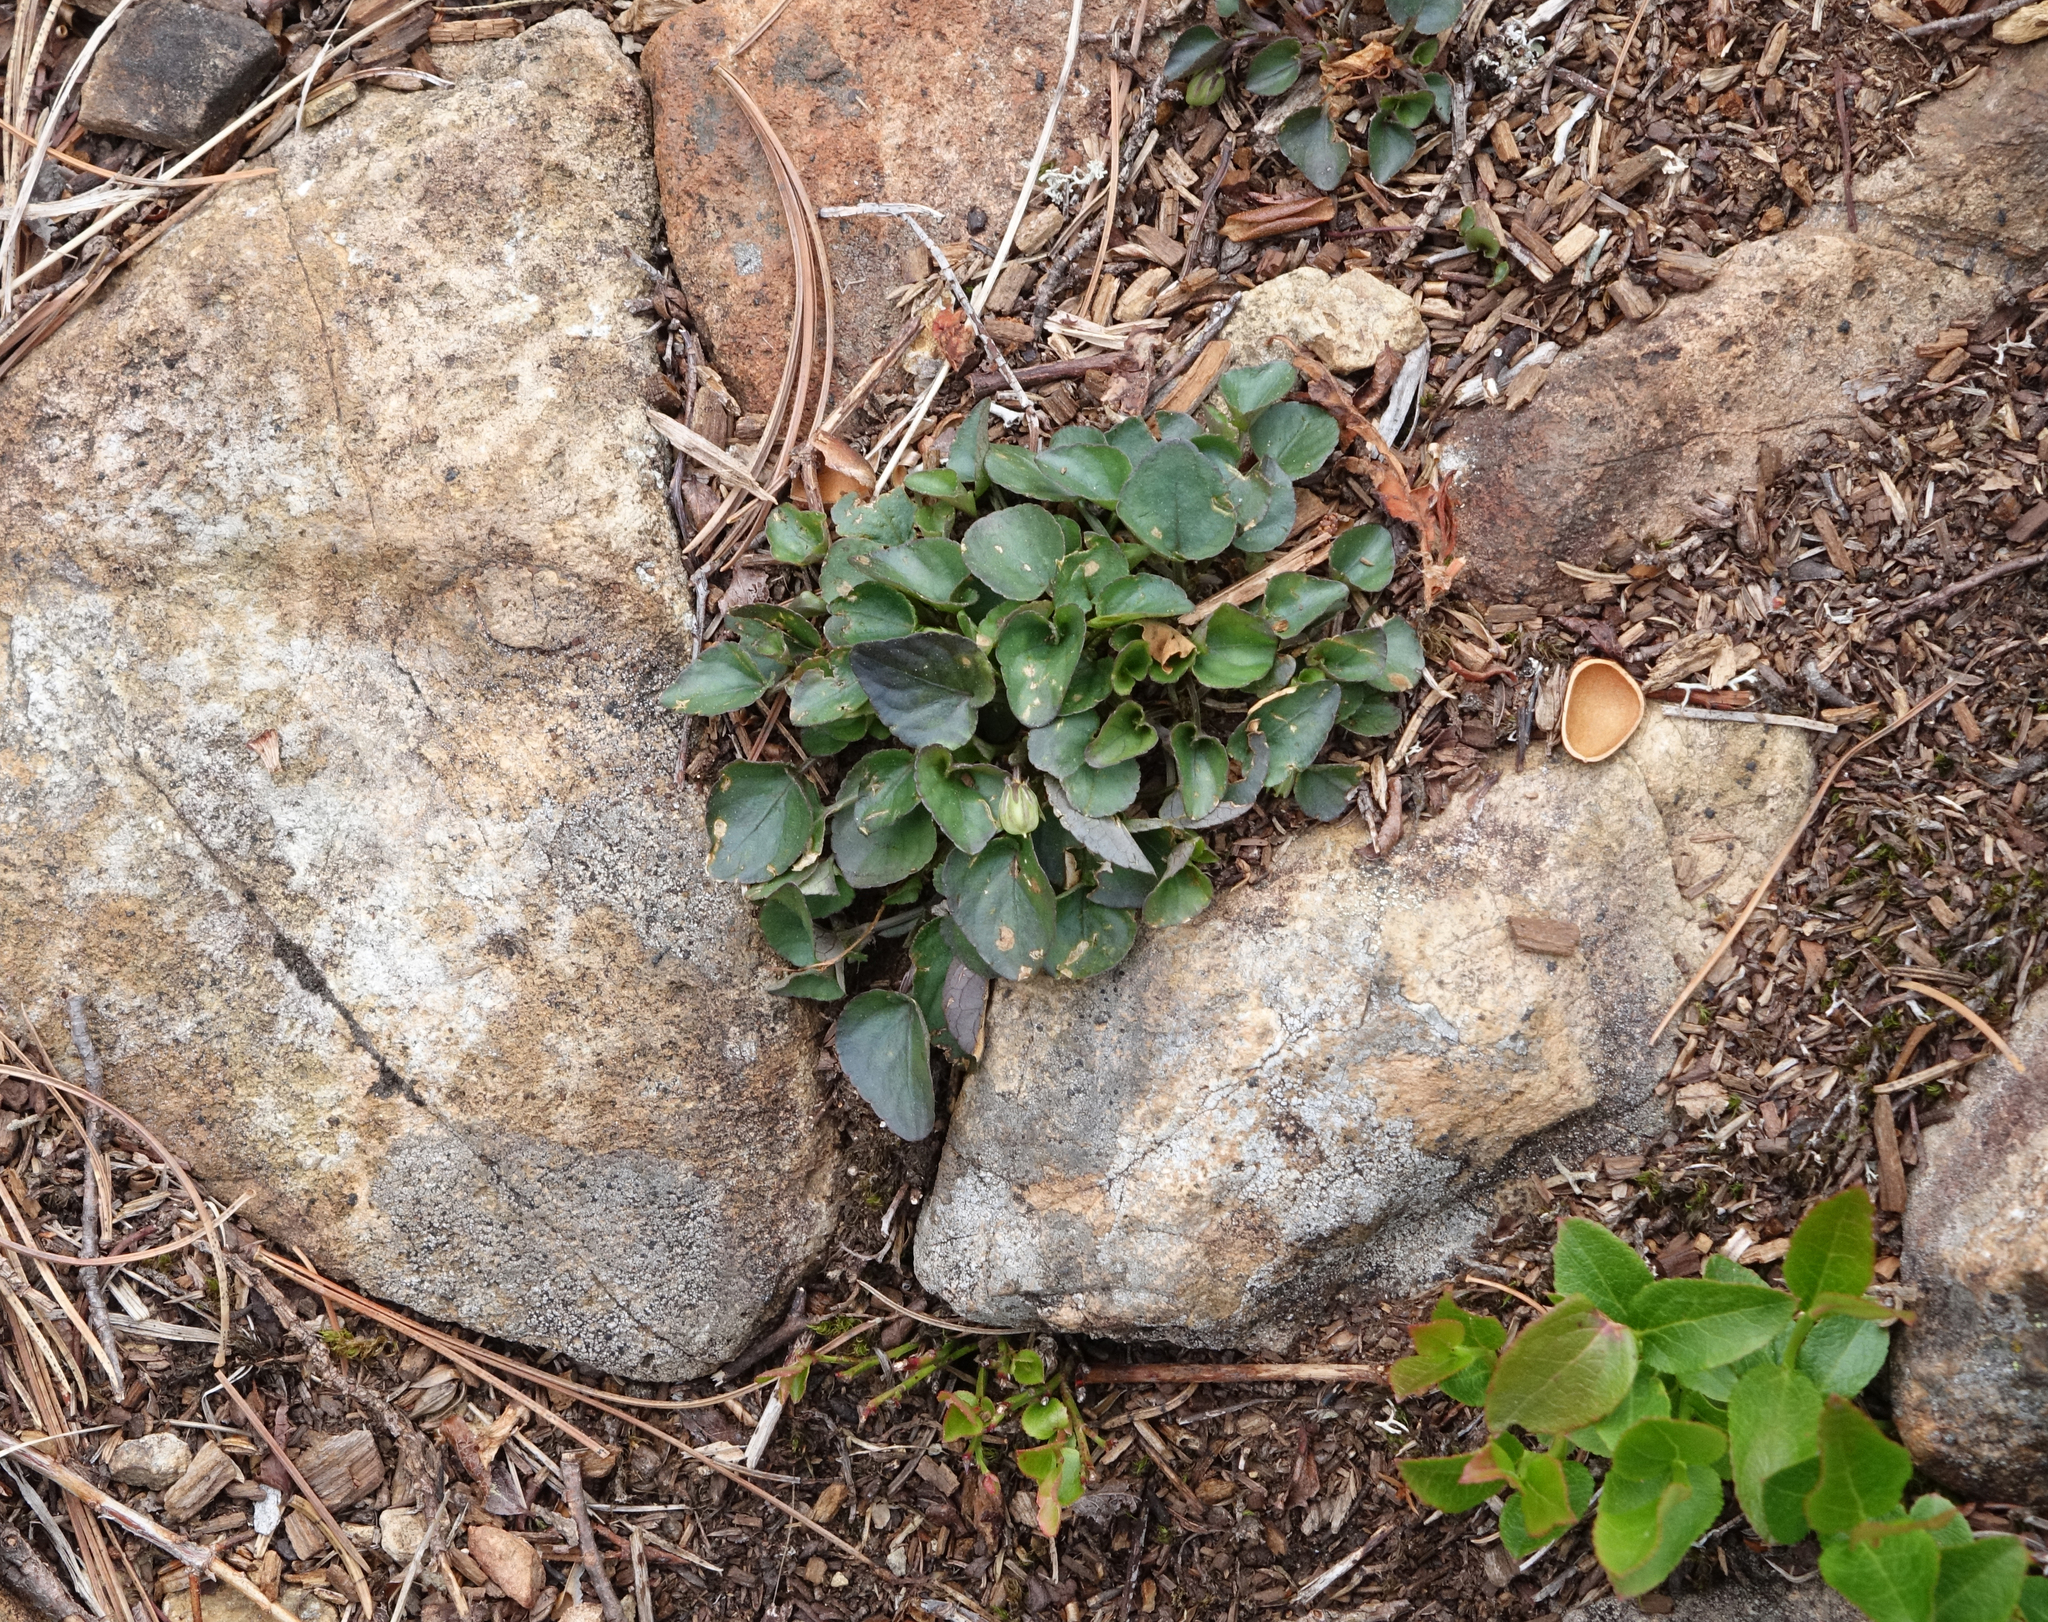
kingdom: Plantae
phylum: Tracheophyta
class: Magnoliopsida
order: Malpighiales
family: Violaceae
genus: Viola
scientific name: Viola rupestris
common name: Teesdale violet
